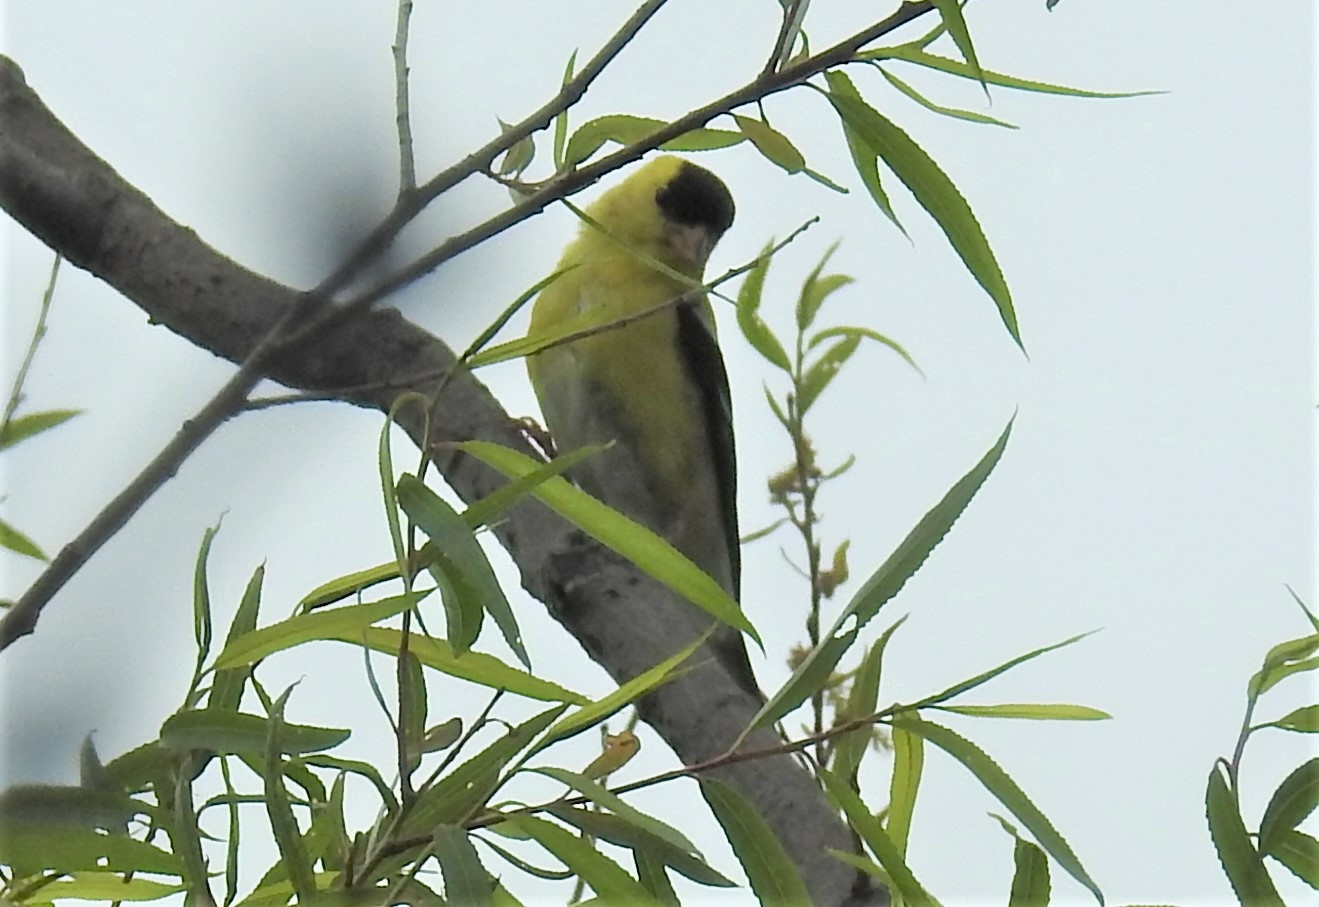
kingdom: Animalia
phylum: Chordata
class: Aves
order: Passeriformes
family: Fringillidae
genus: Spinus
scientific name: Spinus tristis
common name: American goldfinch
